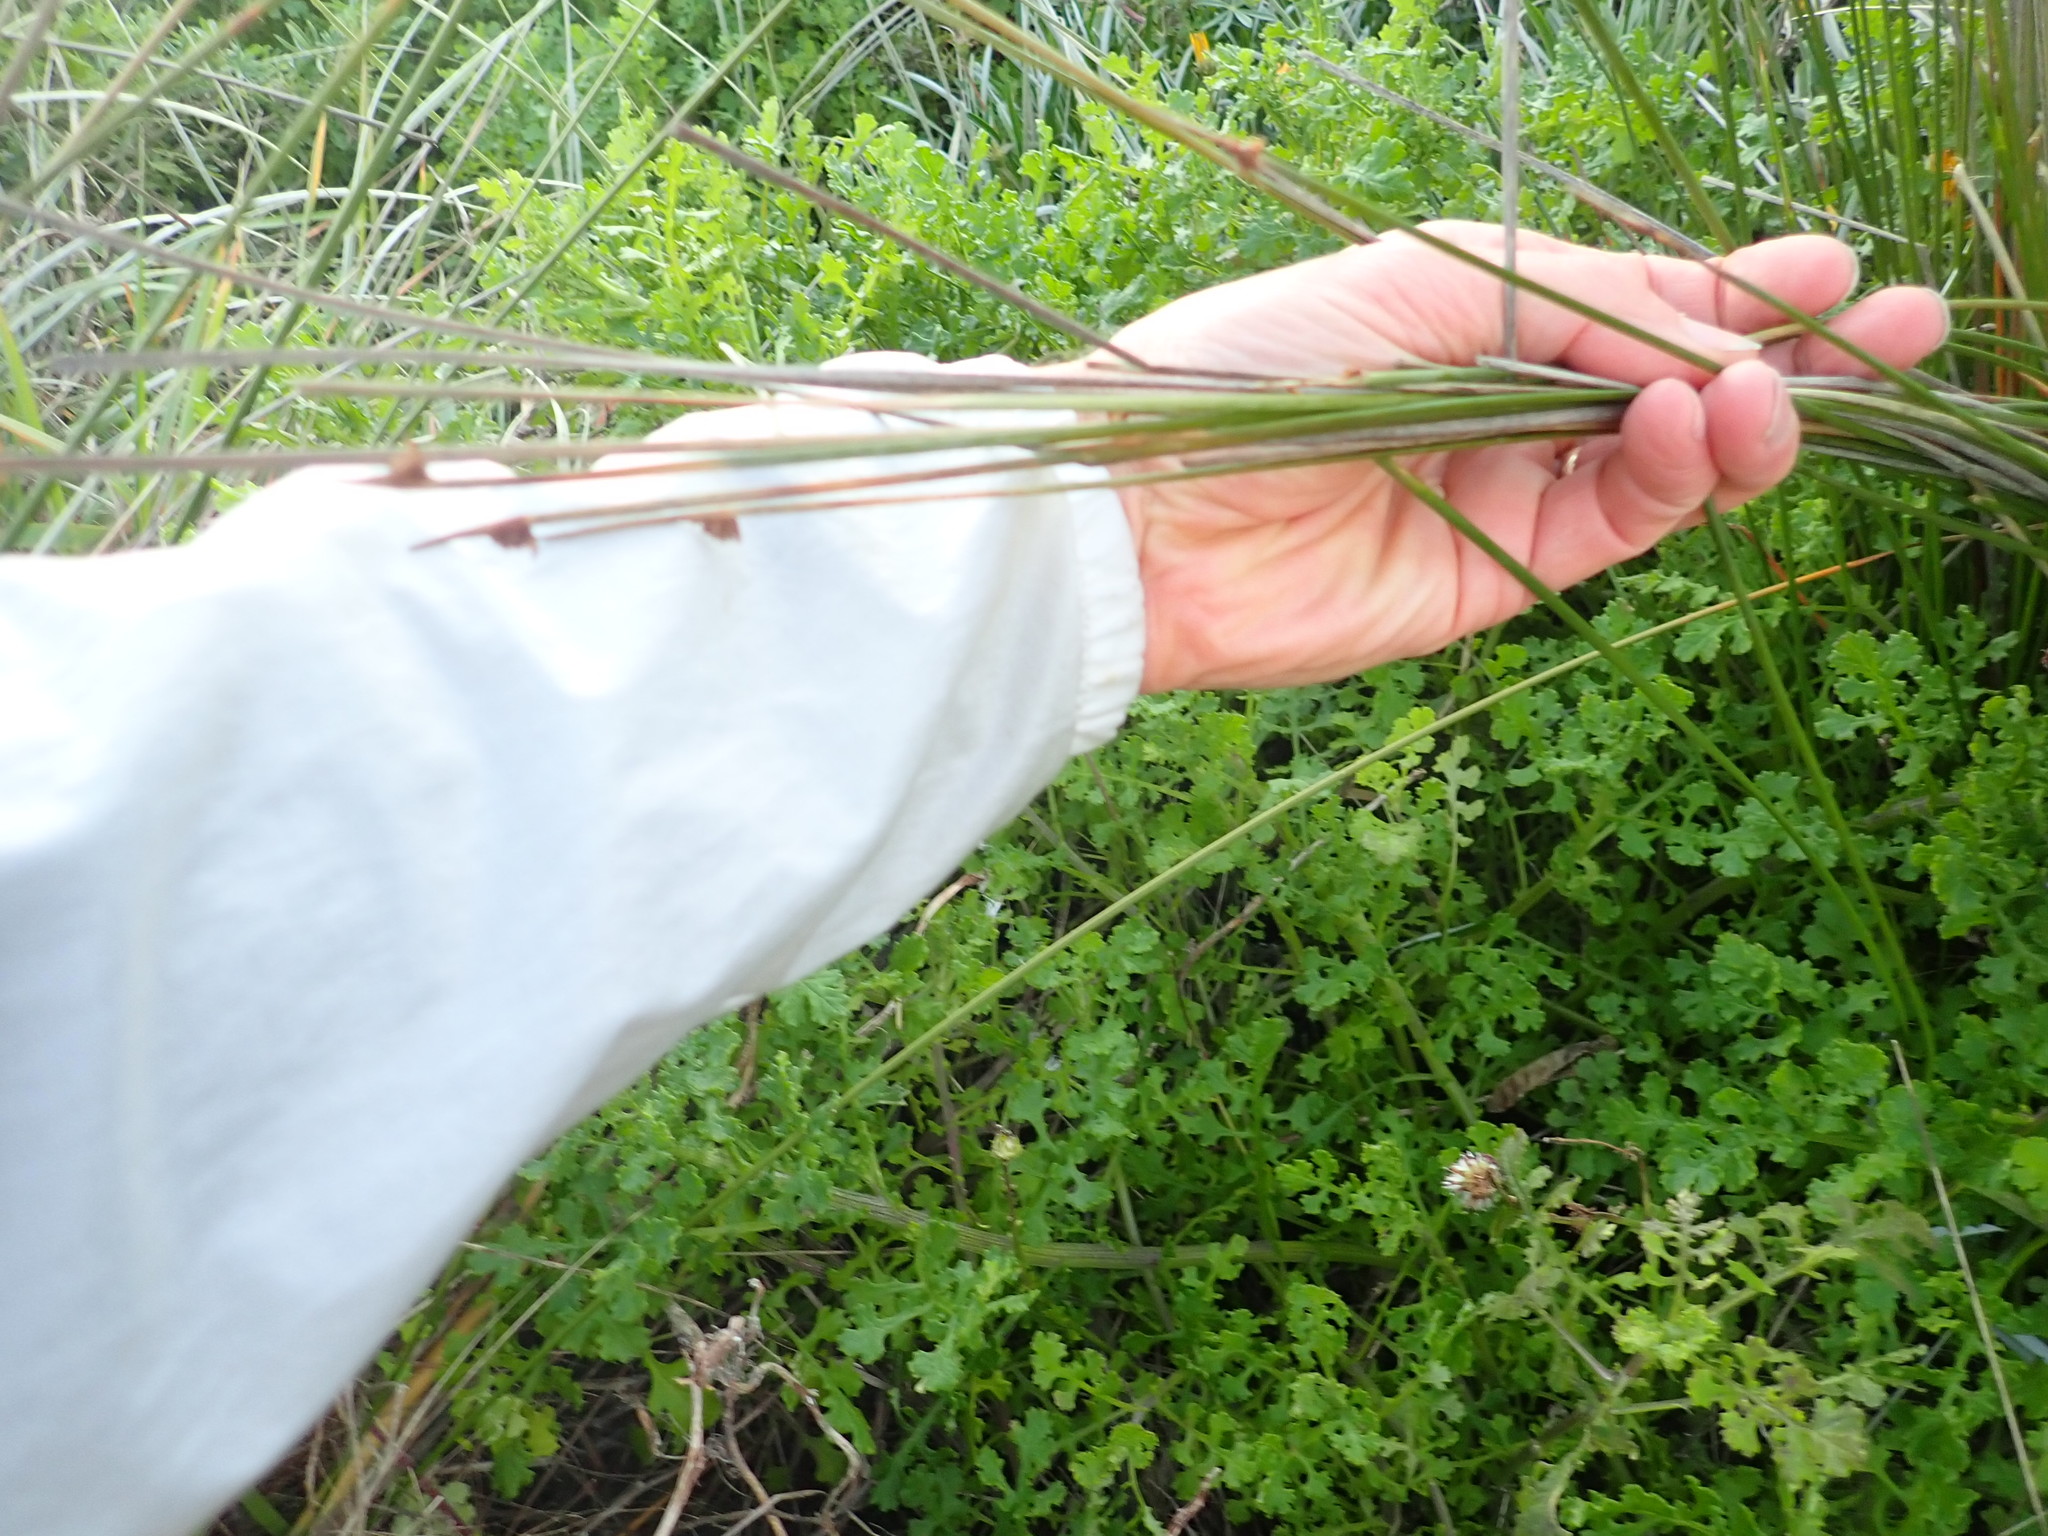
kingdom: Plantae
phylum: Tracheophyta
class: Liliopsida
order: Poales
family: Cyperaceae
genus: Ficinia
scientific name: Ficinia nodosa
